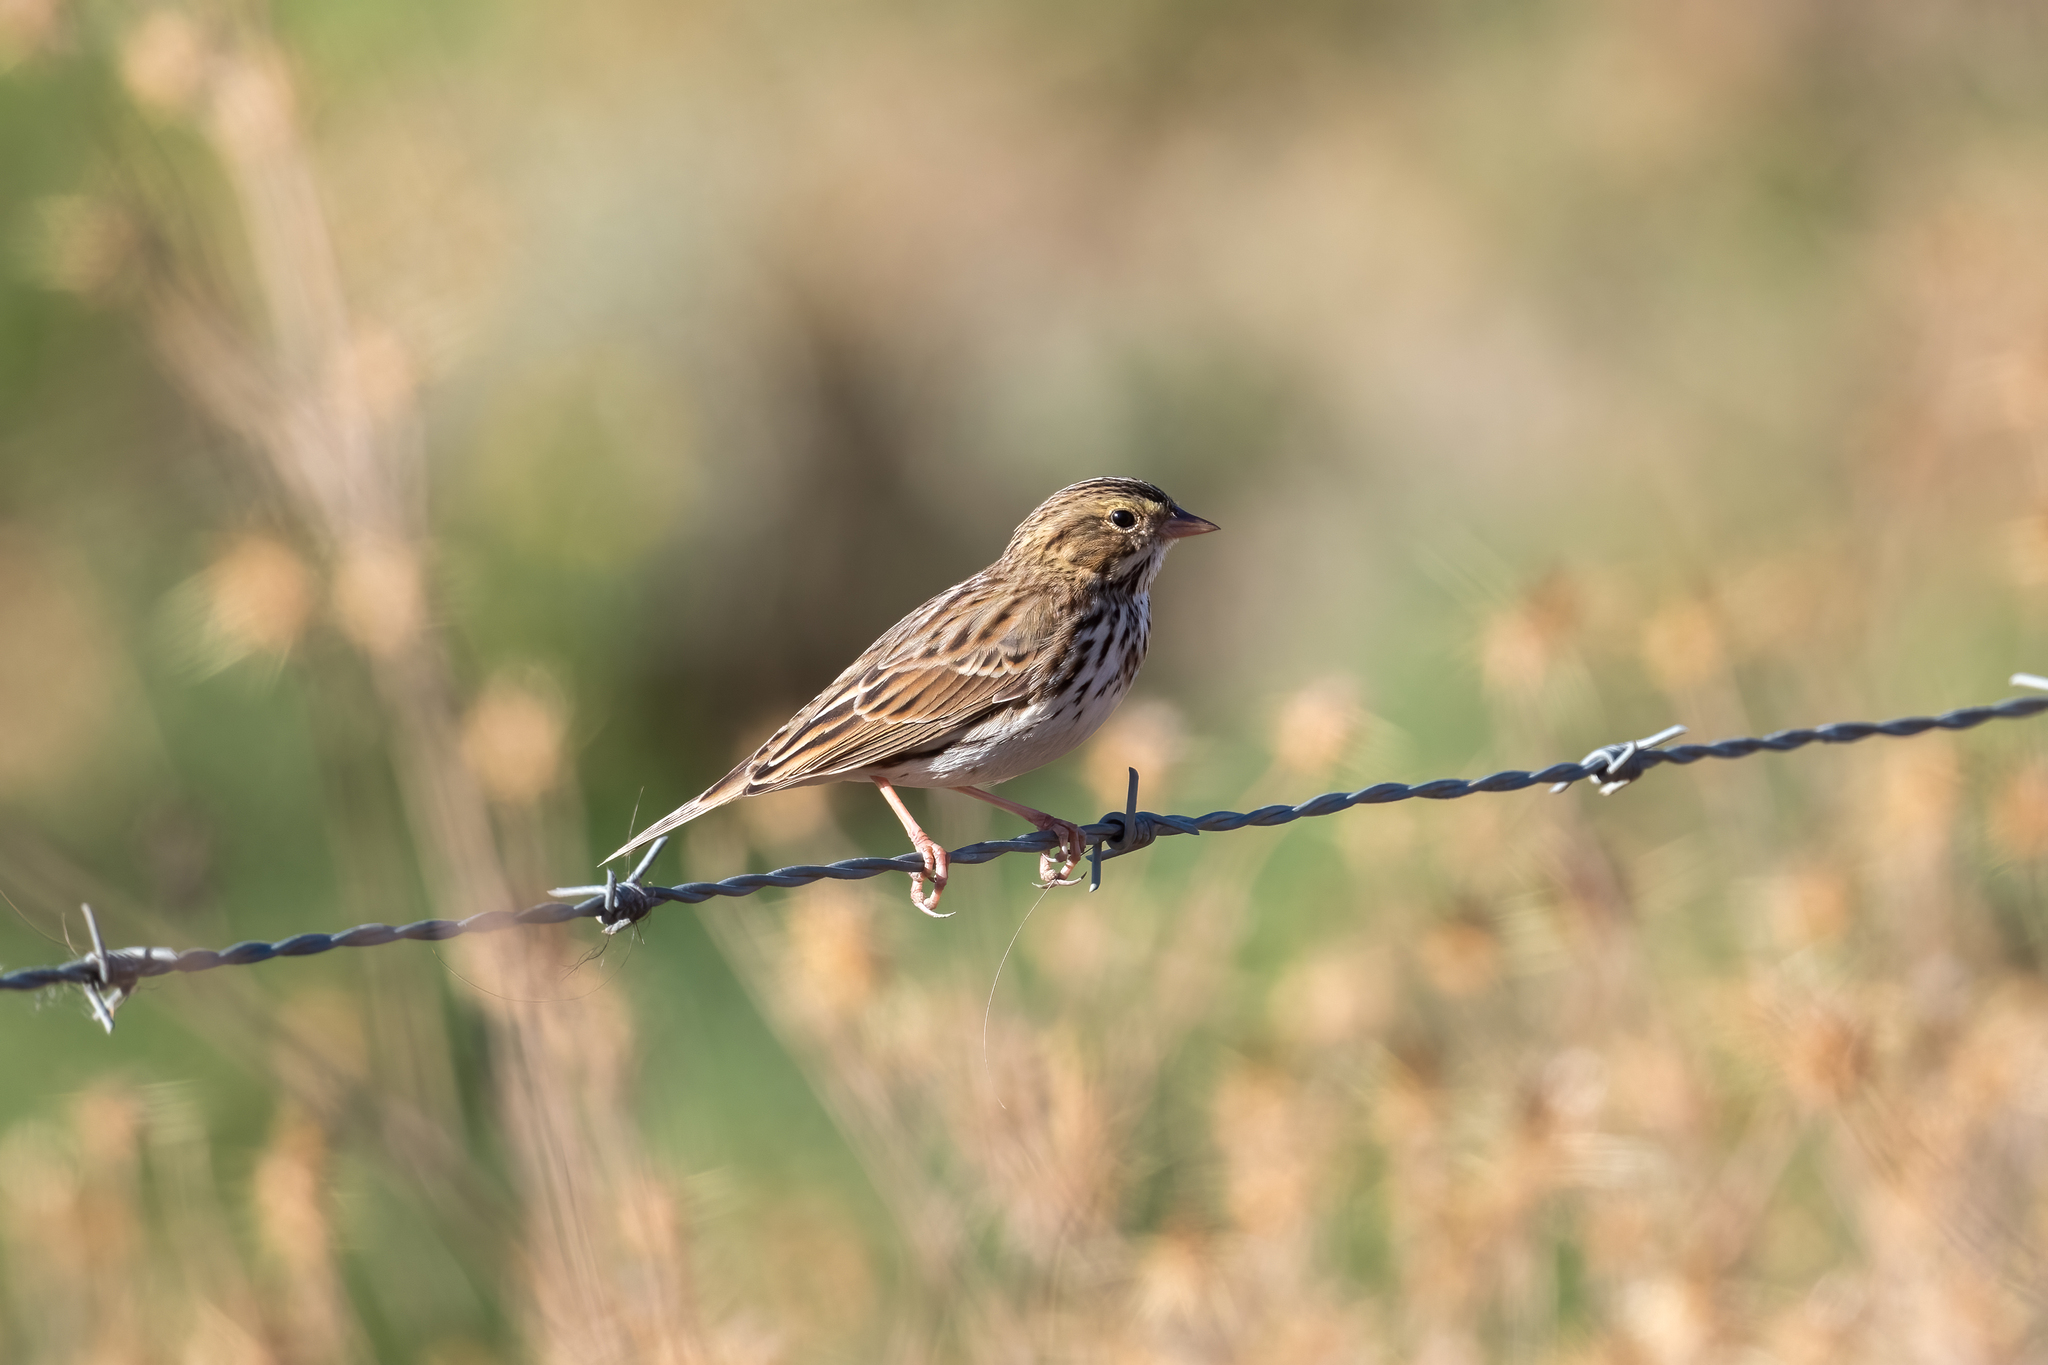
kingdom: Animalia
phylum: Chordata
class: Aves
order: Passeriformes
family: Passerellidae
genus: Passerculus
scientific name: Passerculus sandwichensis
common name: Savannah sparrow
